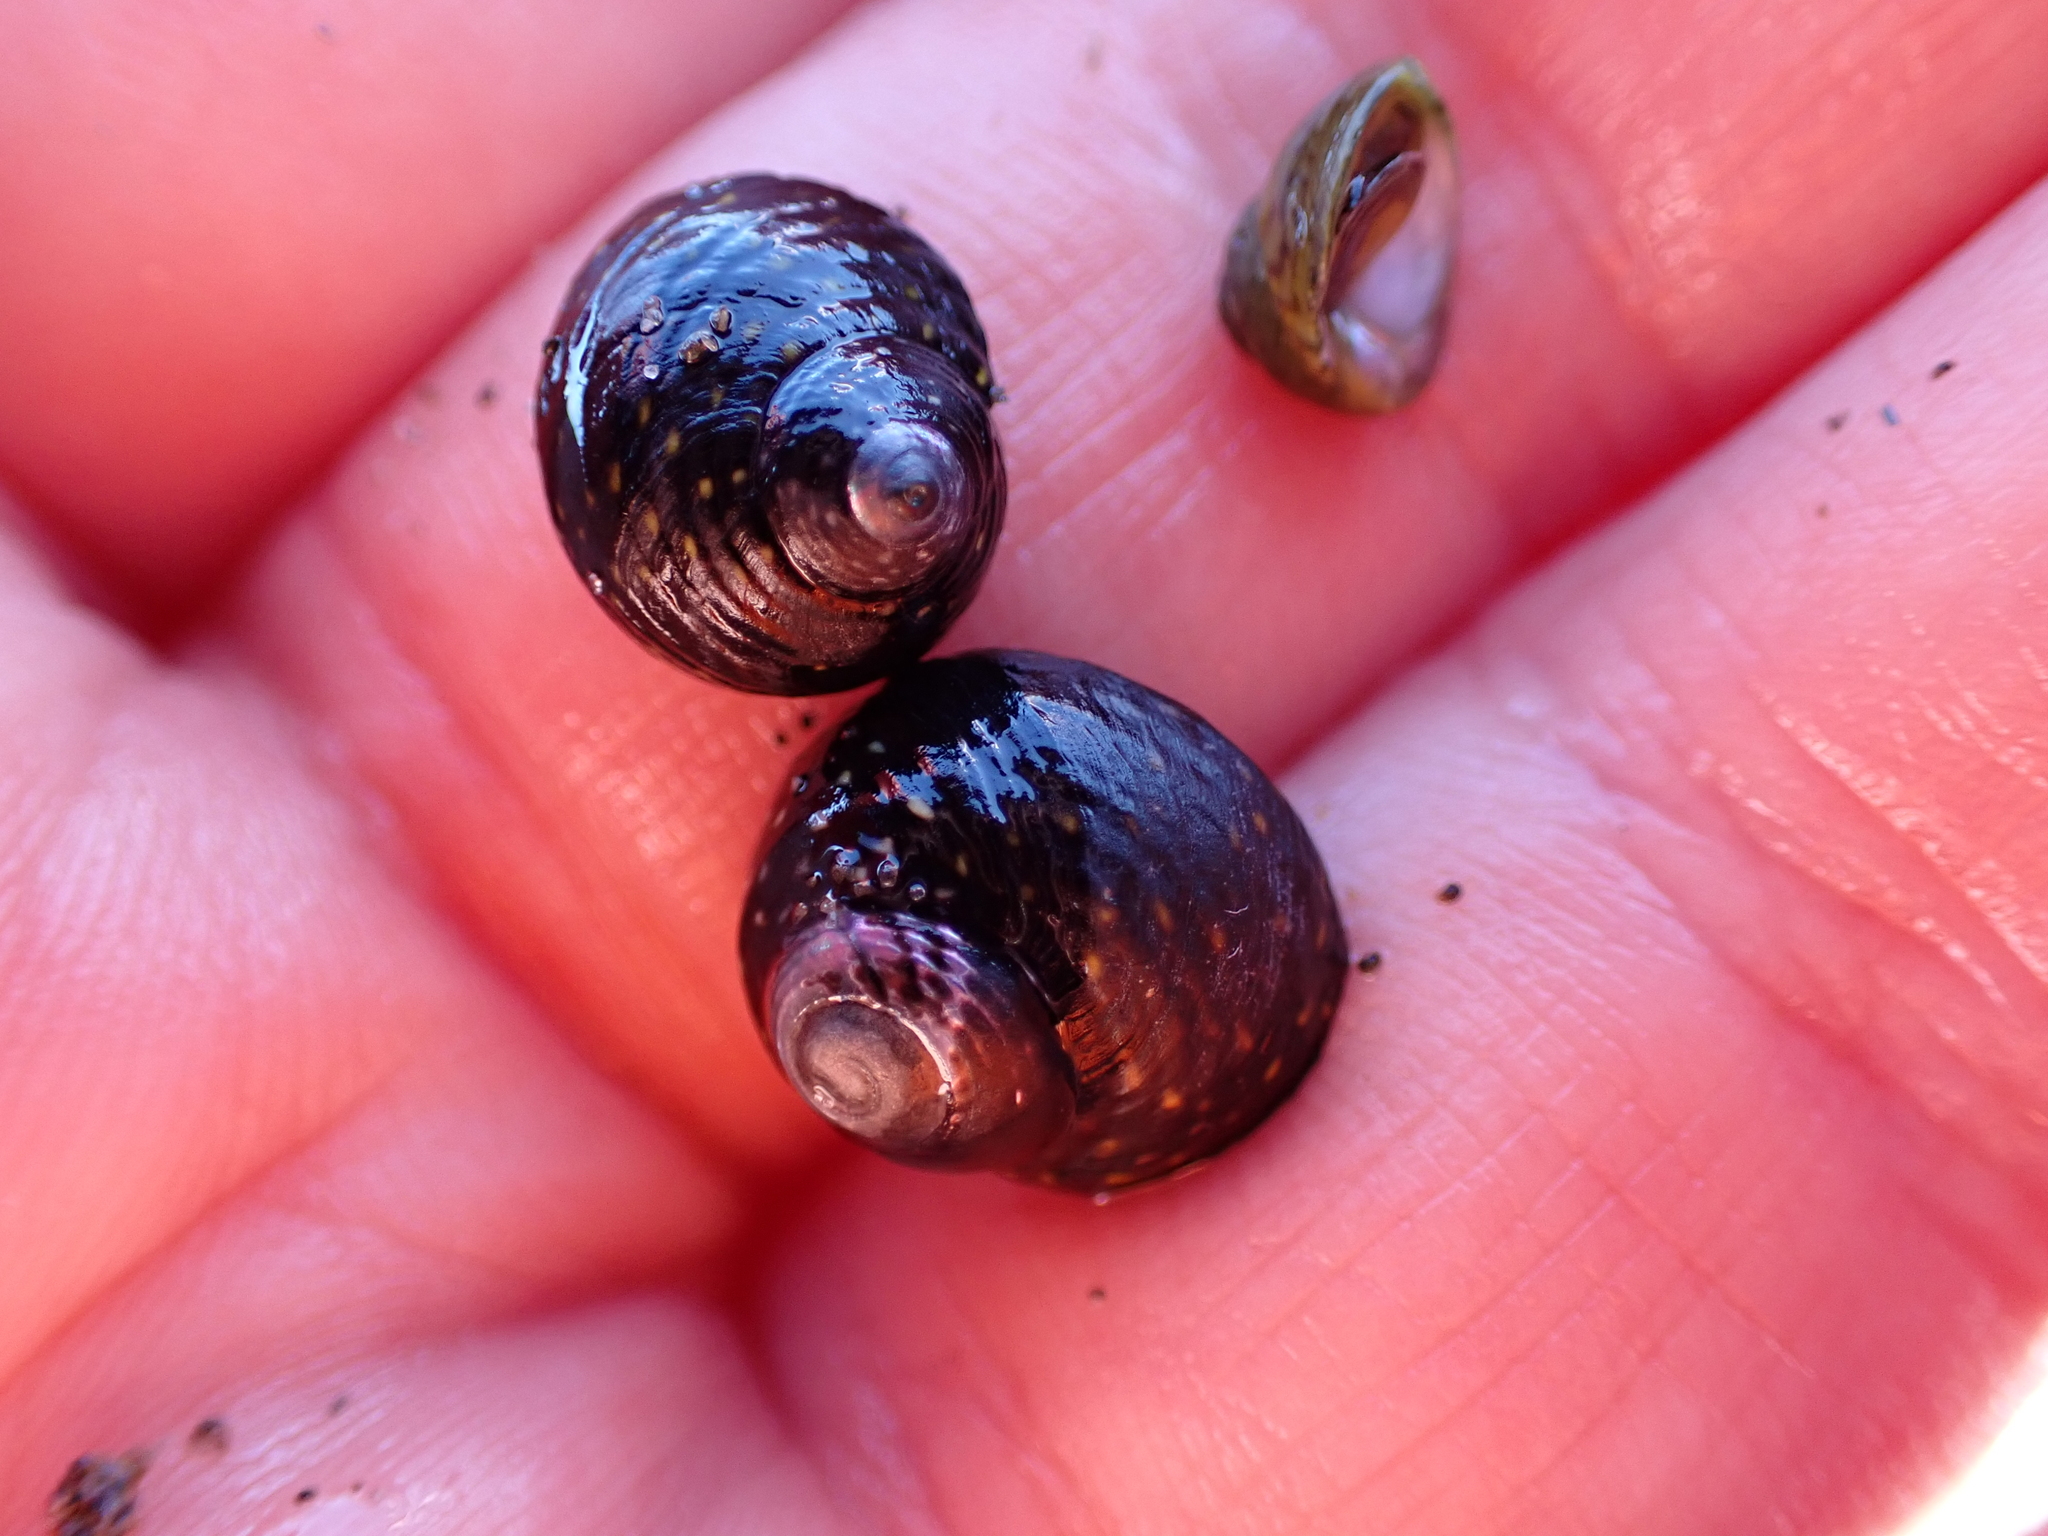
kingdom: Animalia
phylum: Mollusca
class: Gastropoda
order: Trochida
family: Trochidae
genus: Diloma
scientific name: Diloma aridum
